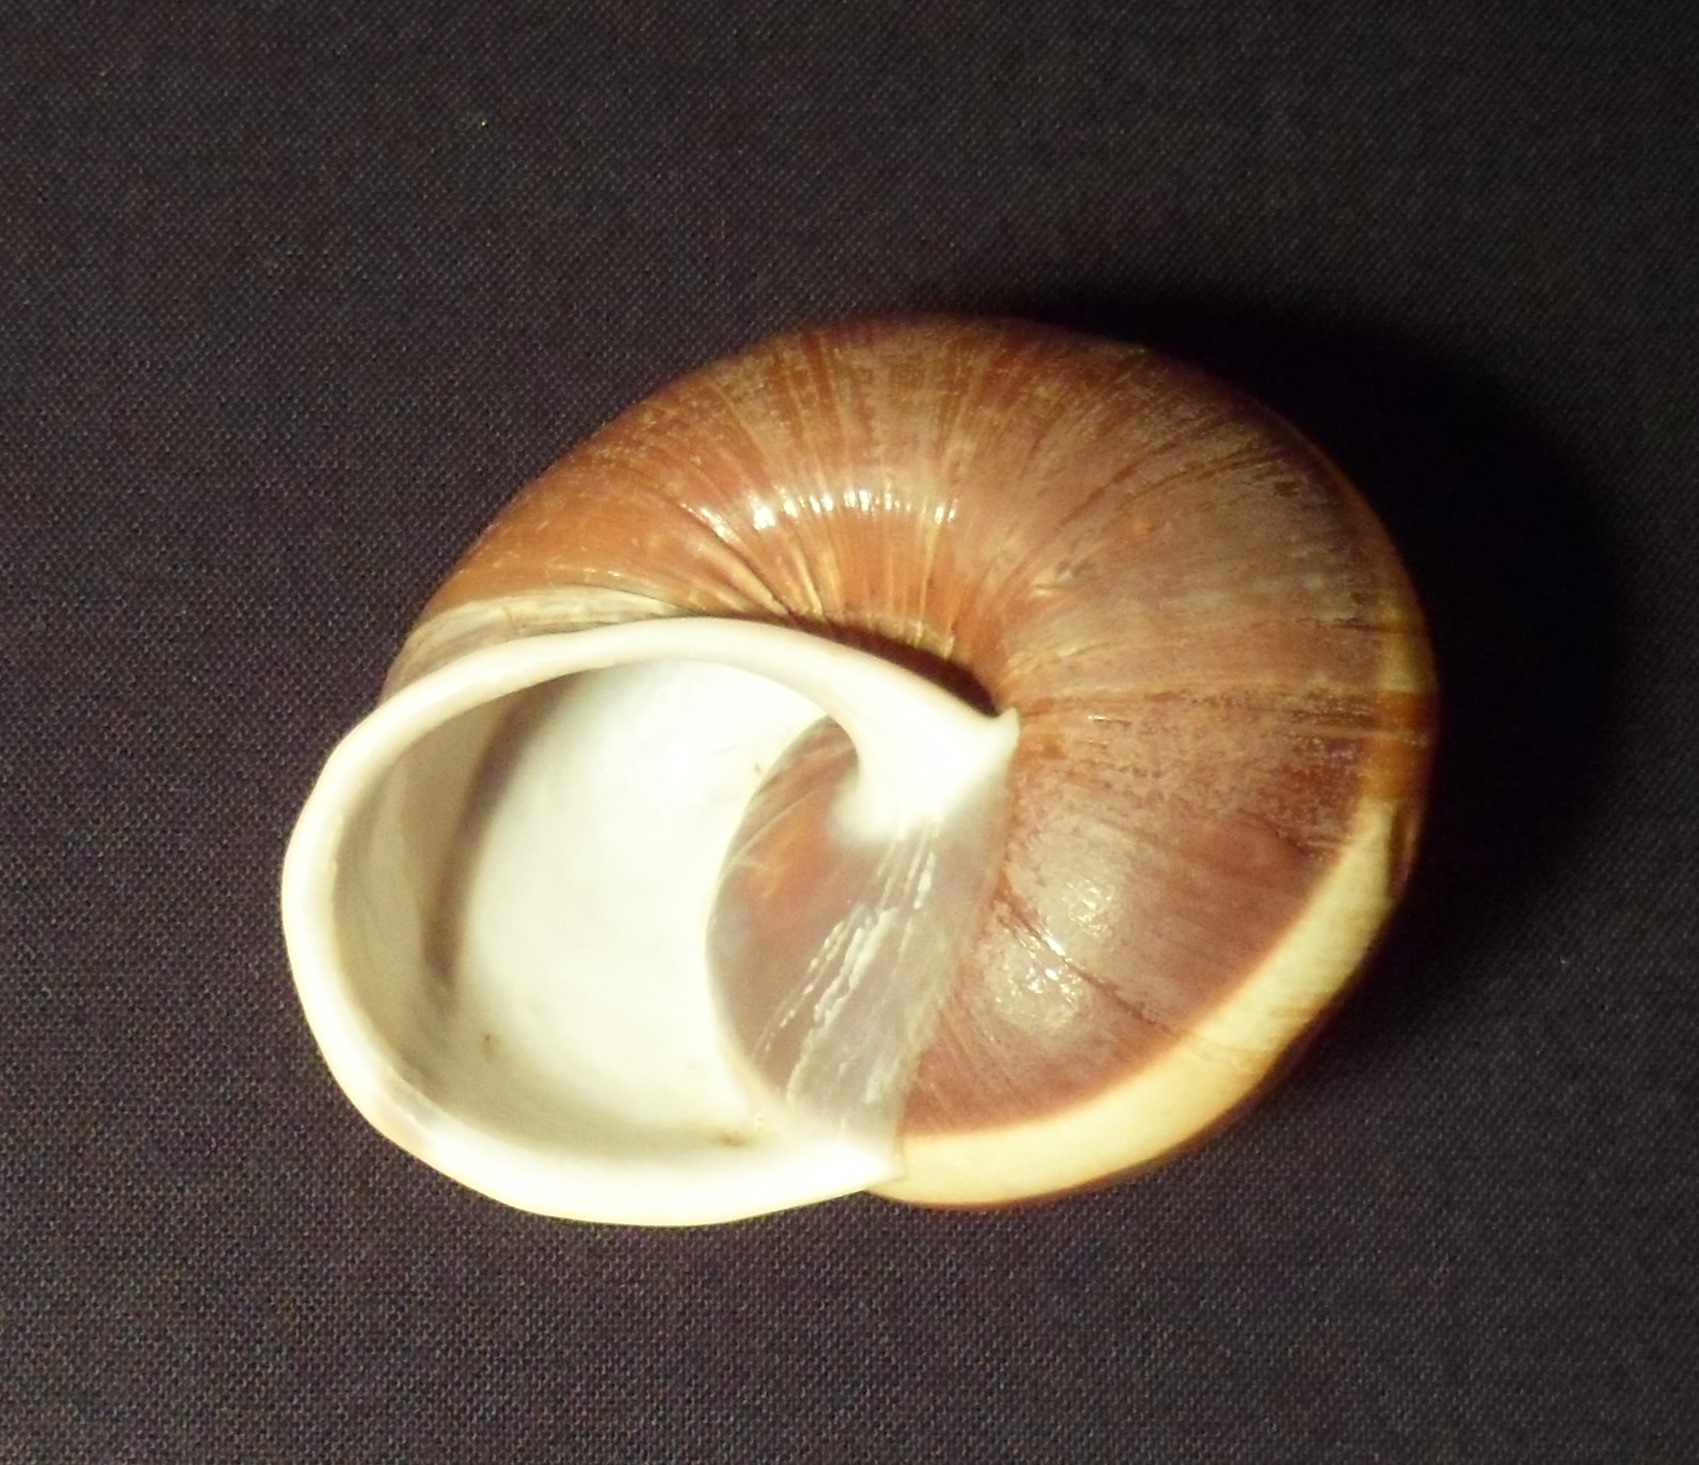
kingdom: Animalia
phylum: Mollusca
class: Gastropoda
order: Stylommatophora
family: Xanthonychidae
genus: Lysinoe
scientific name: Lysinoe ghiesbreghti
